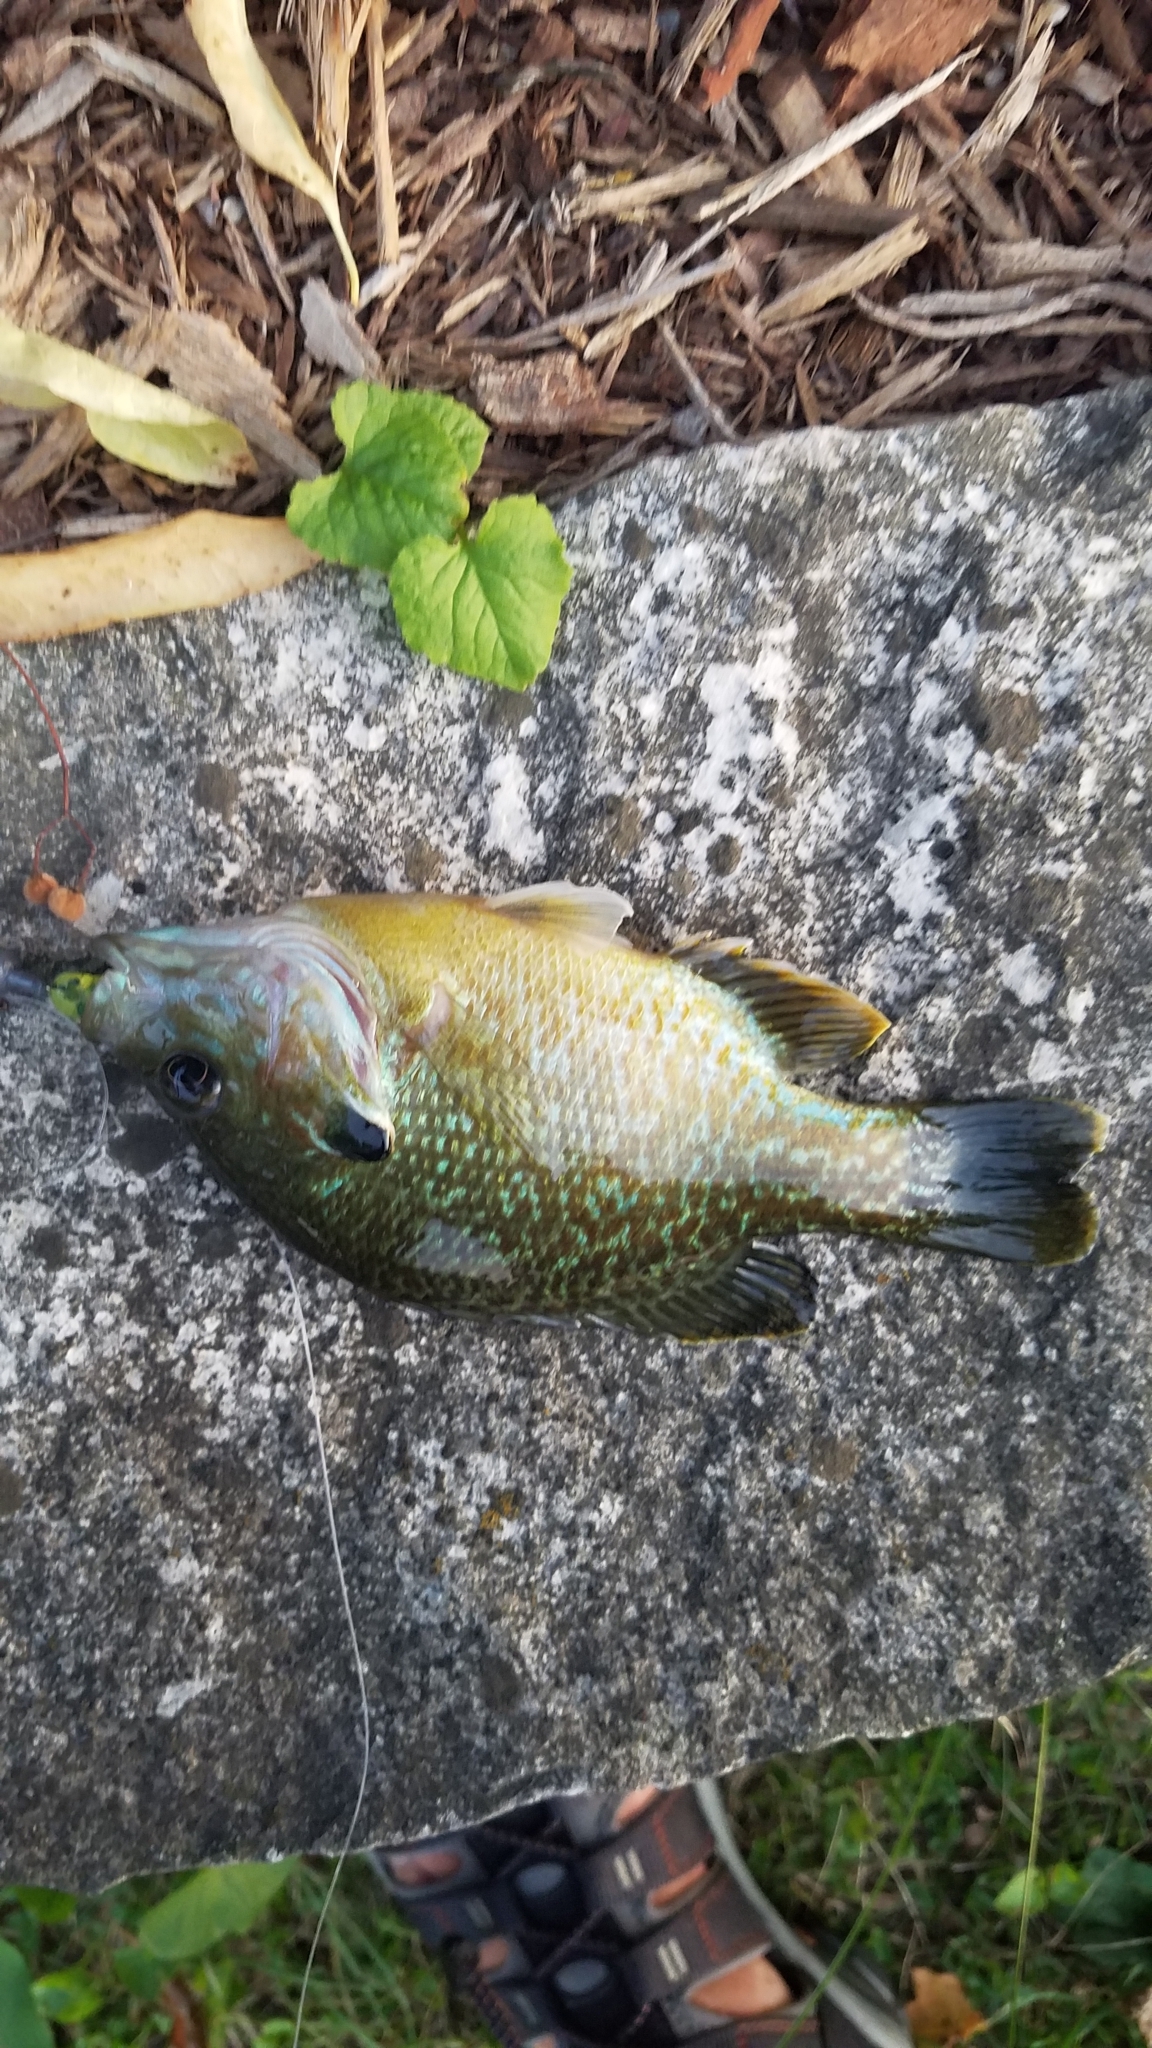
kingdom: Animalia
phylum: Chordata
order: Perciformes
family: Centrarchidae
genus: Lepomis
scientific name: Lepomis
